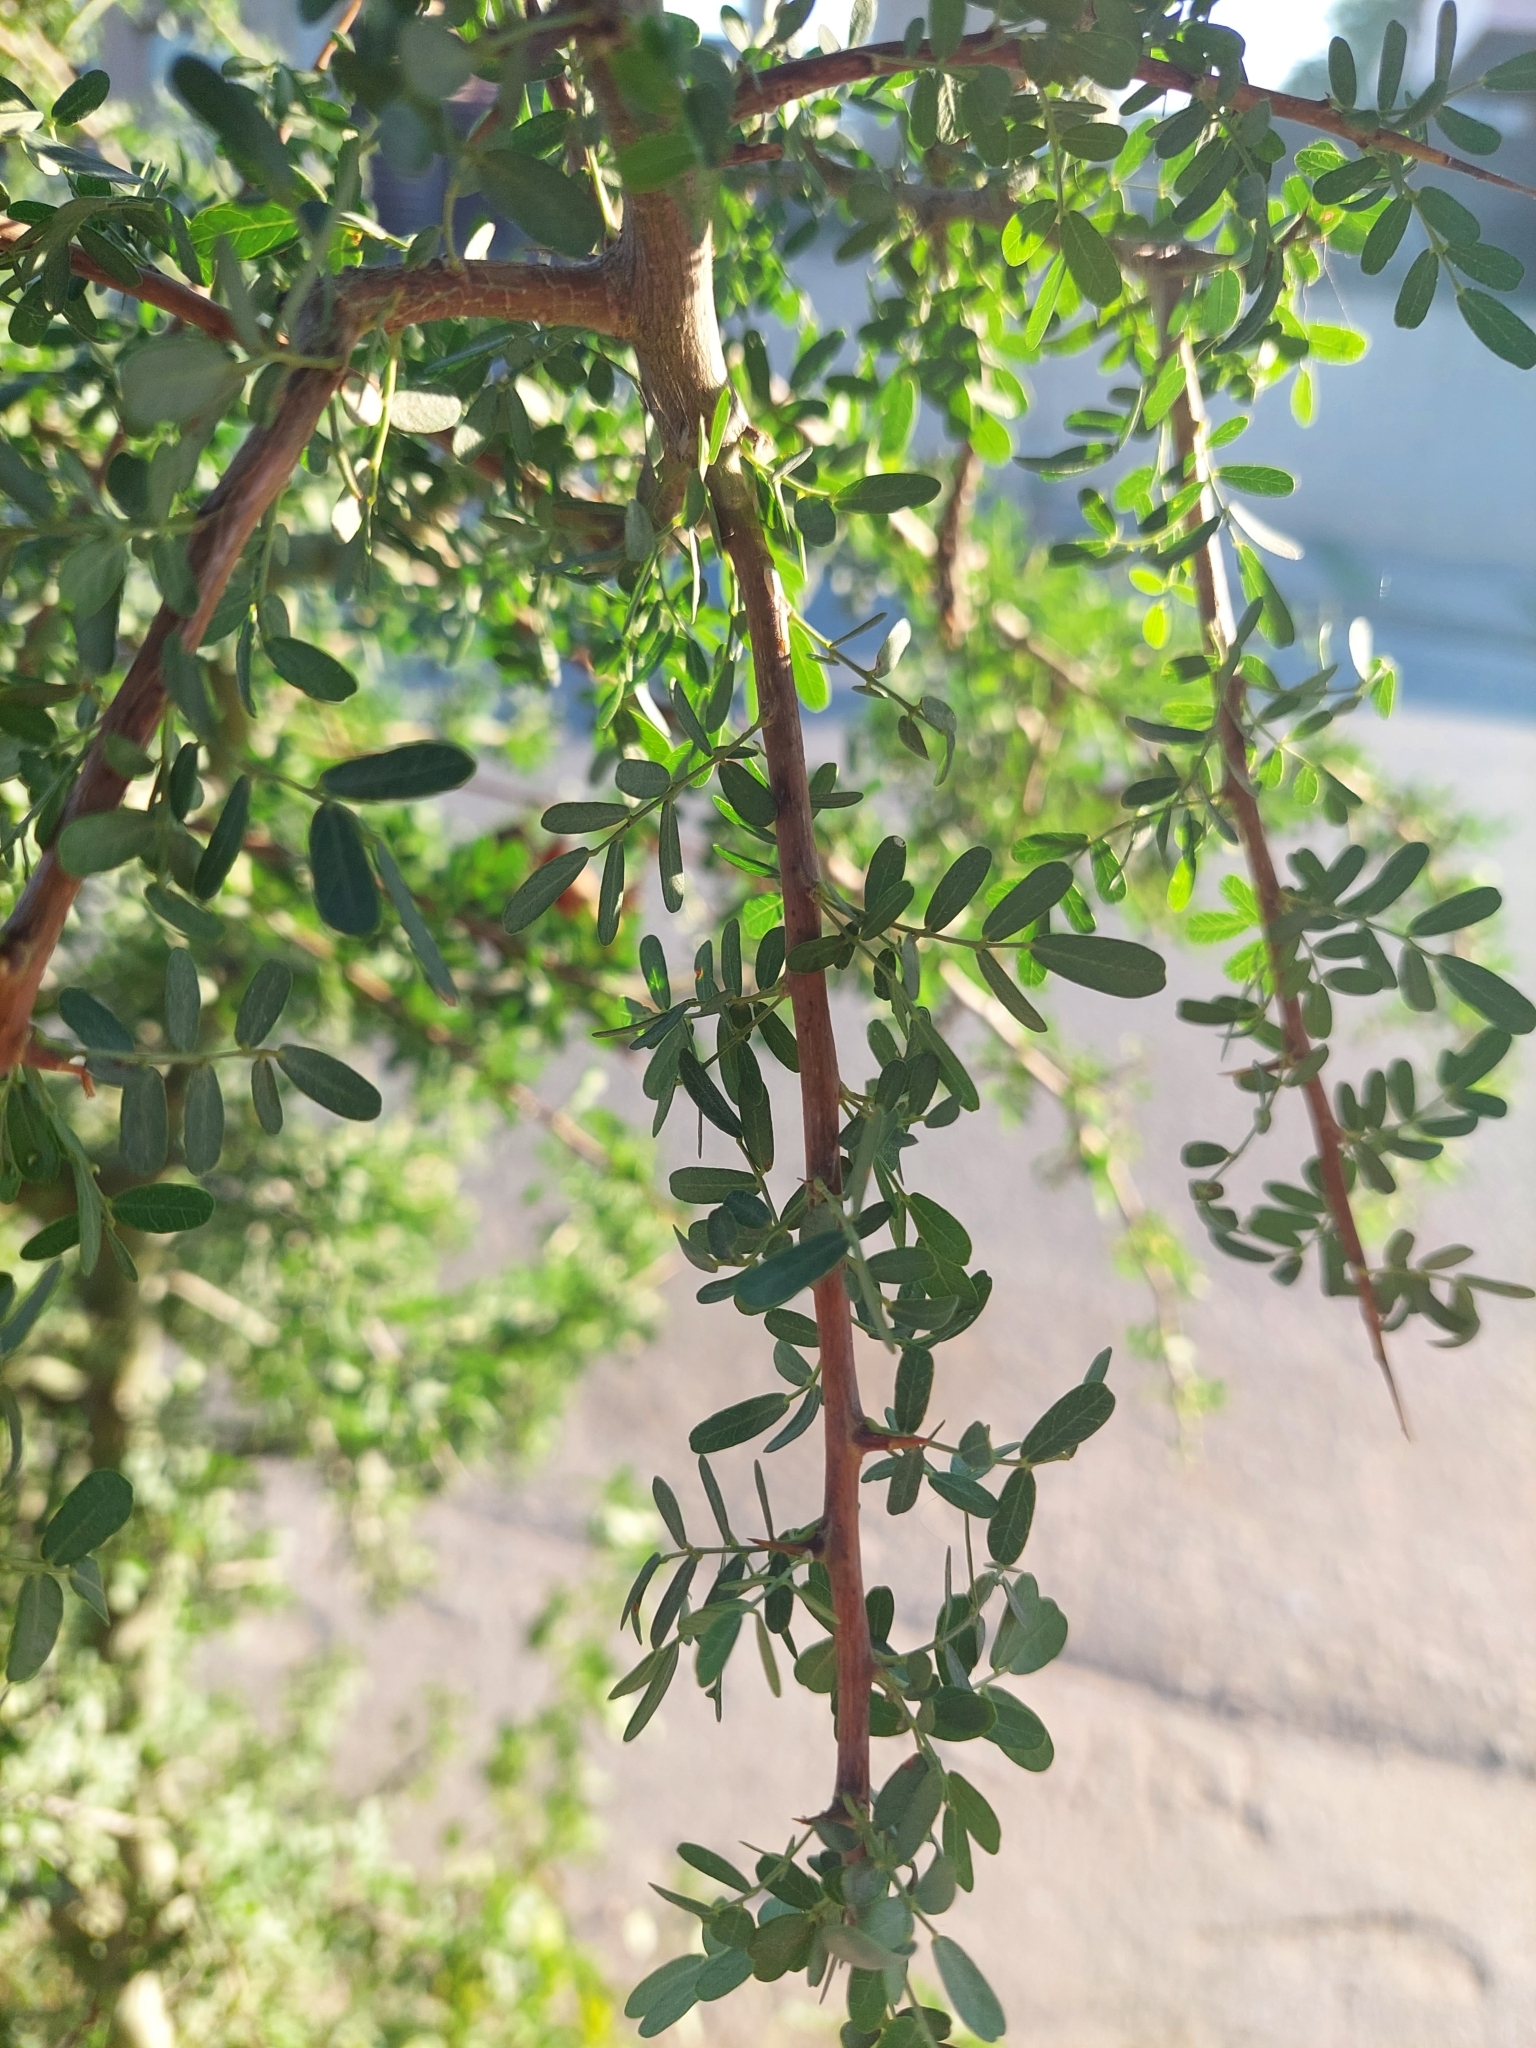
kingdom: Plantae
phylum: Tracheophyta
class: Magnoliopsida
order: Fabales
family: Fabaceae
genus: Geoffroea
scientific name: Geoffroea decorticans
